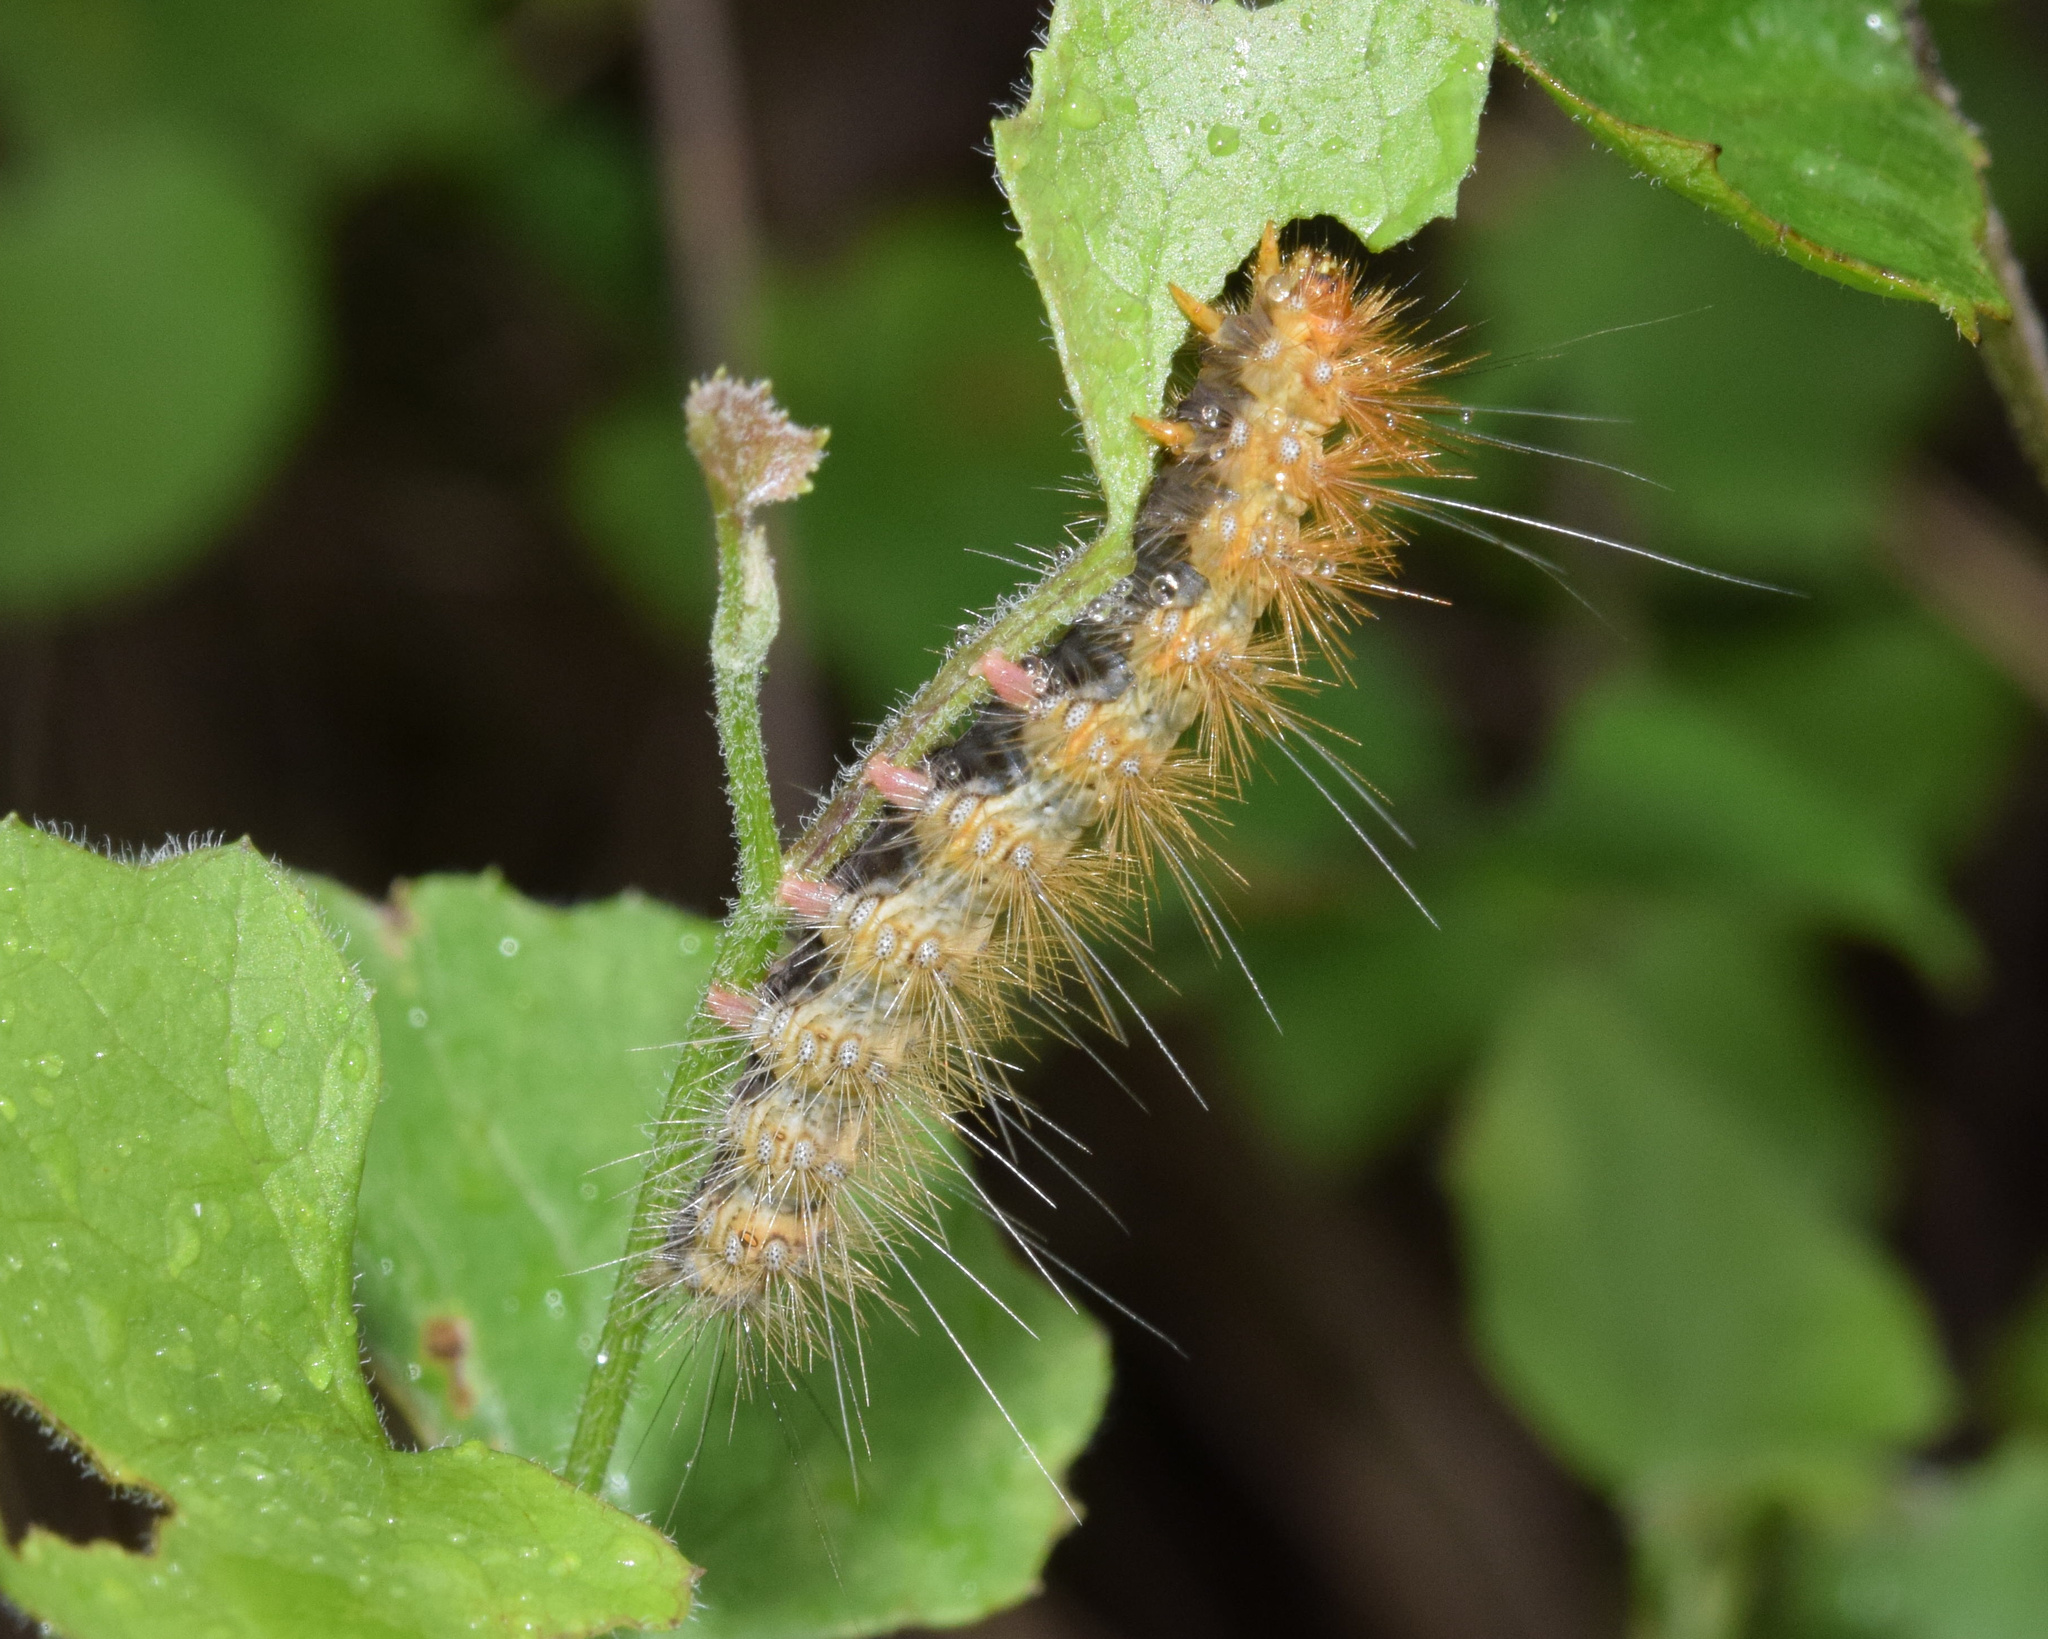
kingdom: Animalia
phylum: Arthropoda
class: Insecta
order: Lepidoptera
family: Erebidae
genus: Rhodogastria
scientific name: Rhodogastria similis
